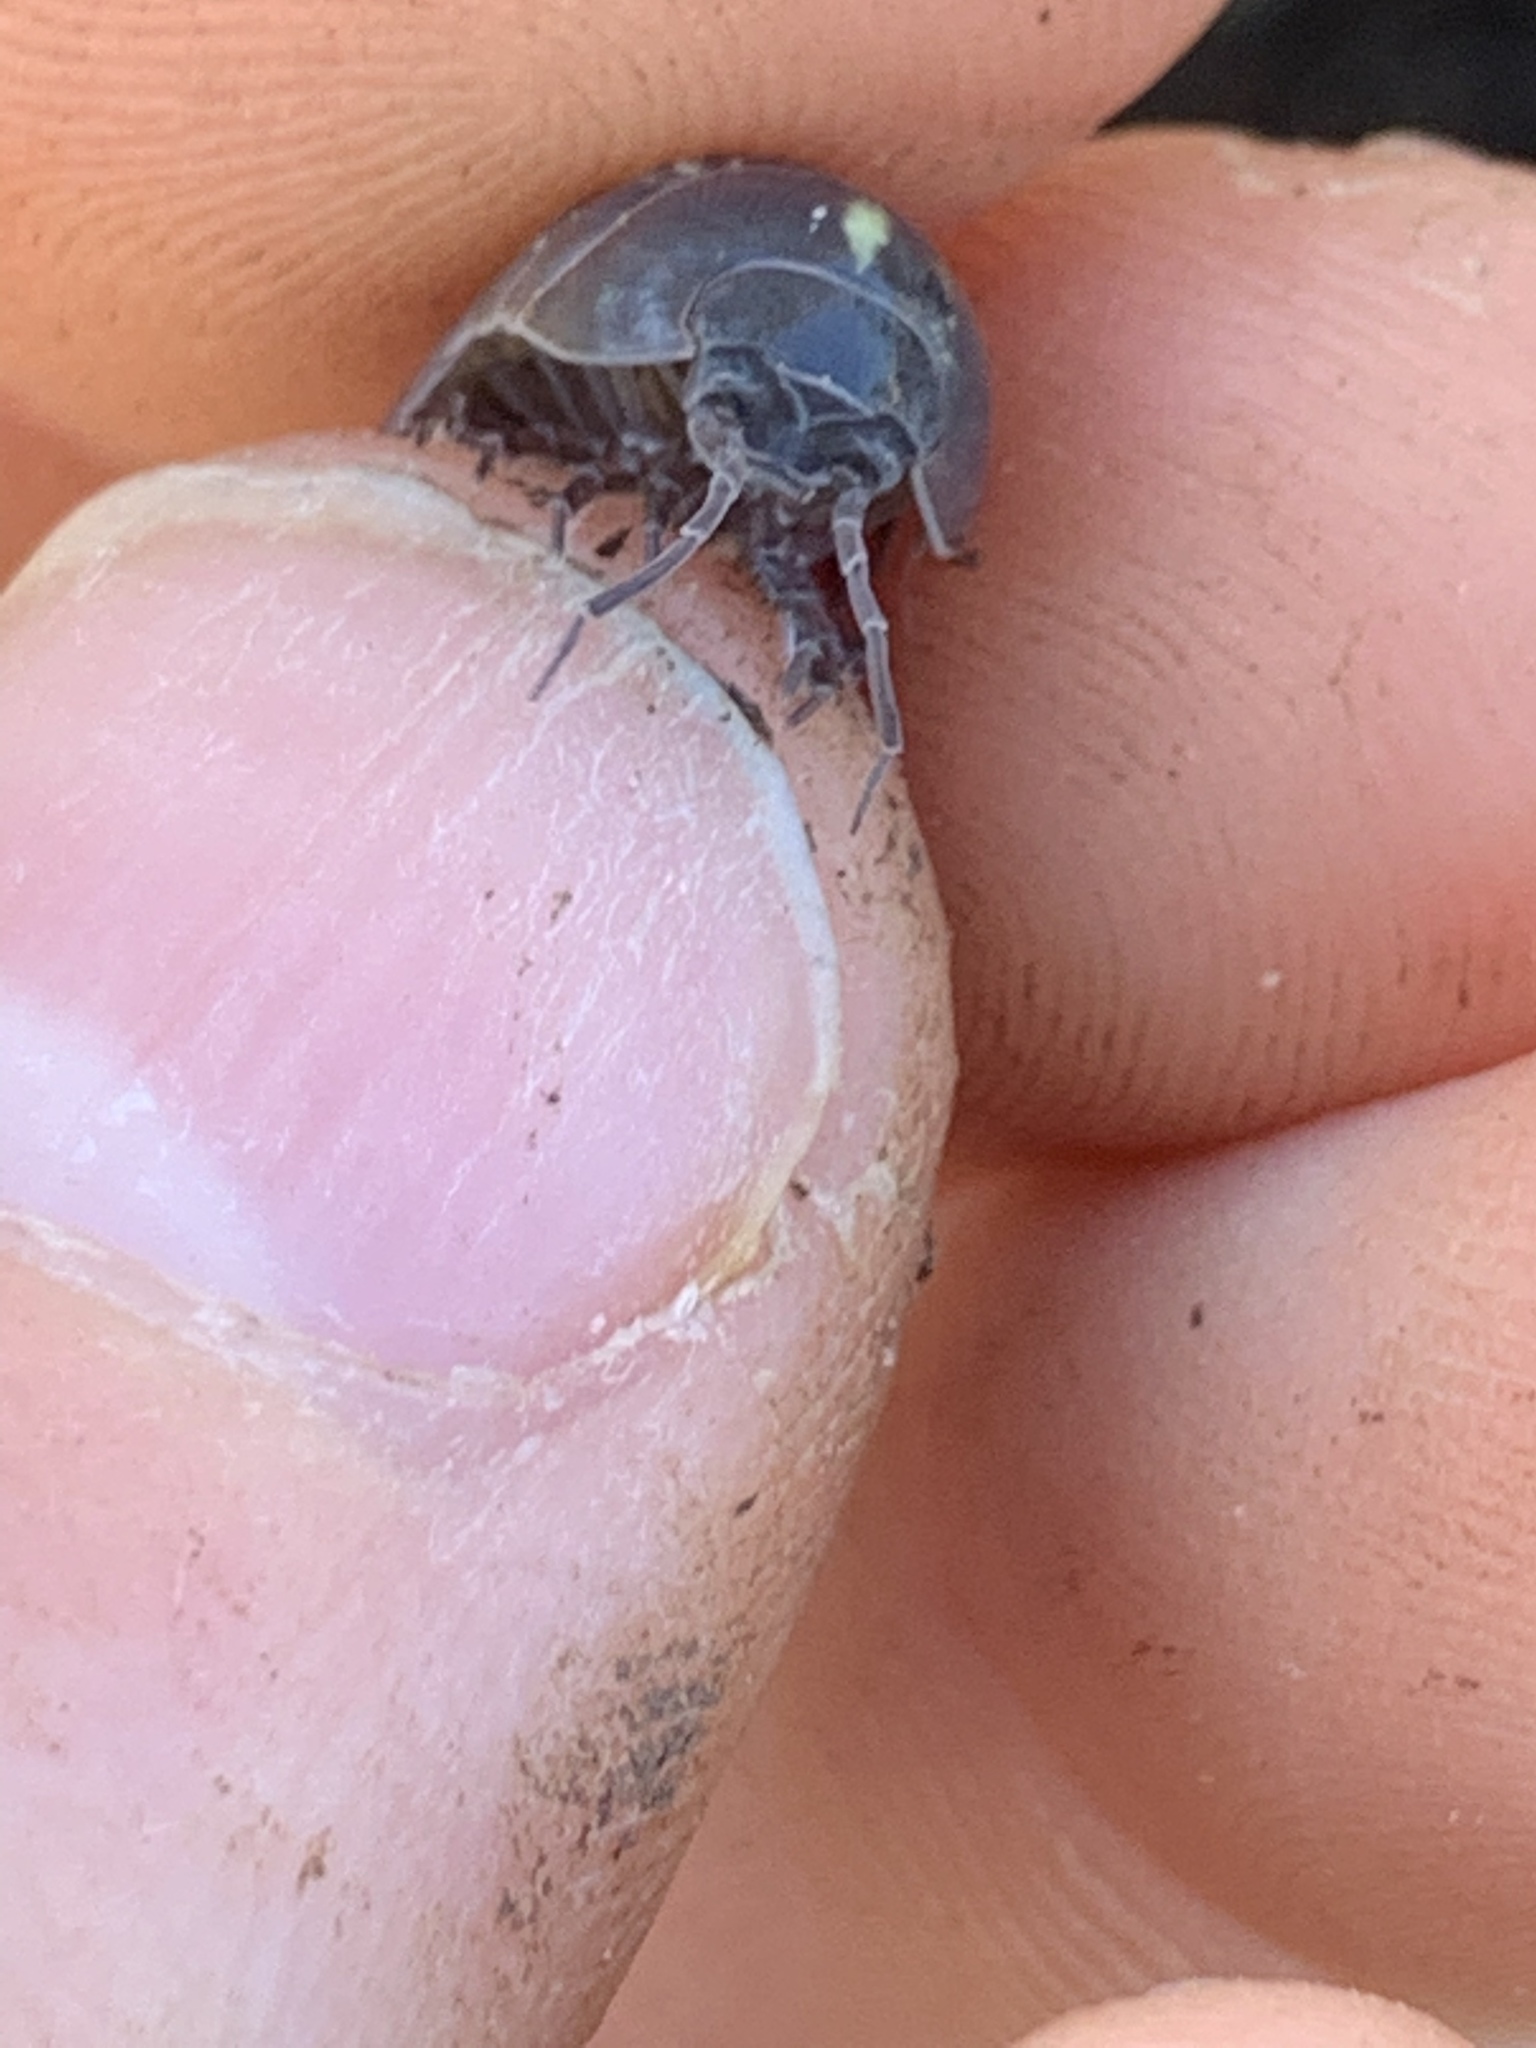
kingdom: Animalia
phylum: Arthropoda
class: Malacostraca
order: Isopoda
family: Armadillidiidae
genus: Armadillidium
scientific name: Armadillidium vulgare
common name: Common pill woodlouse
